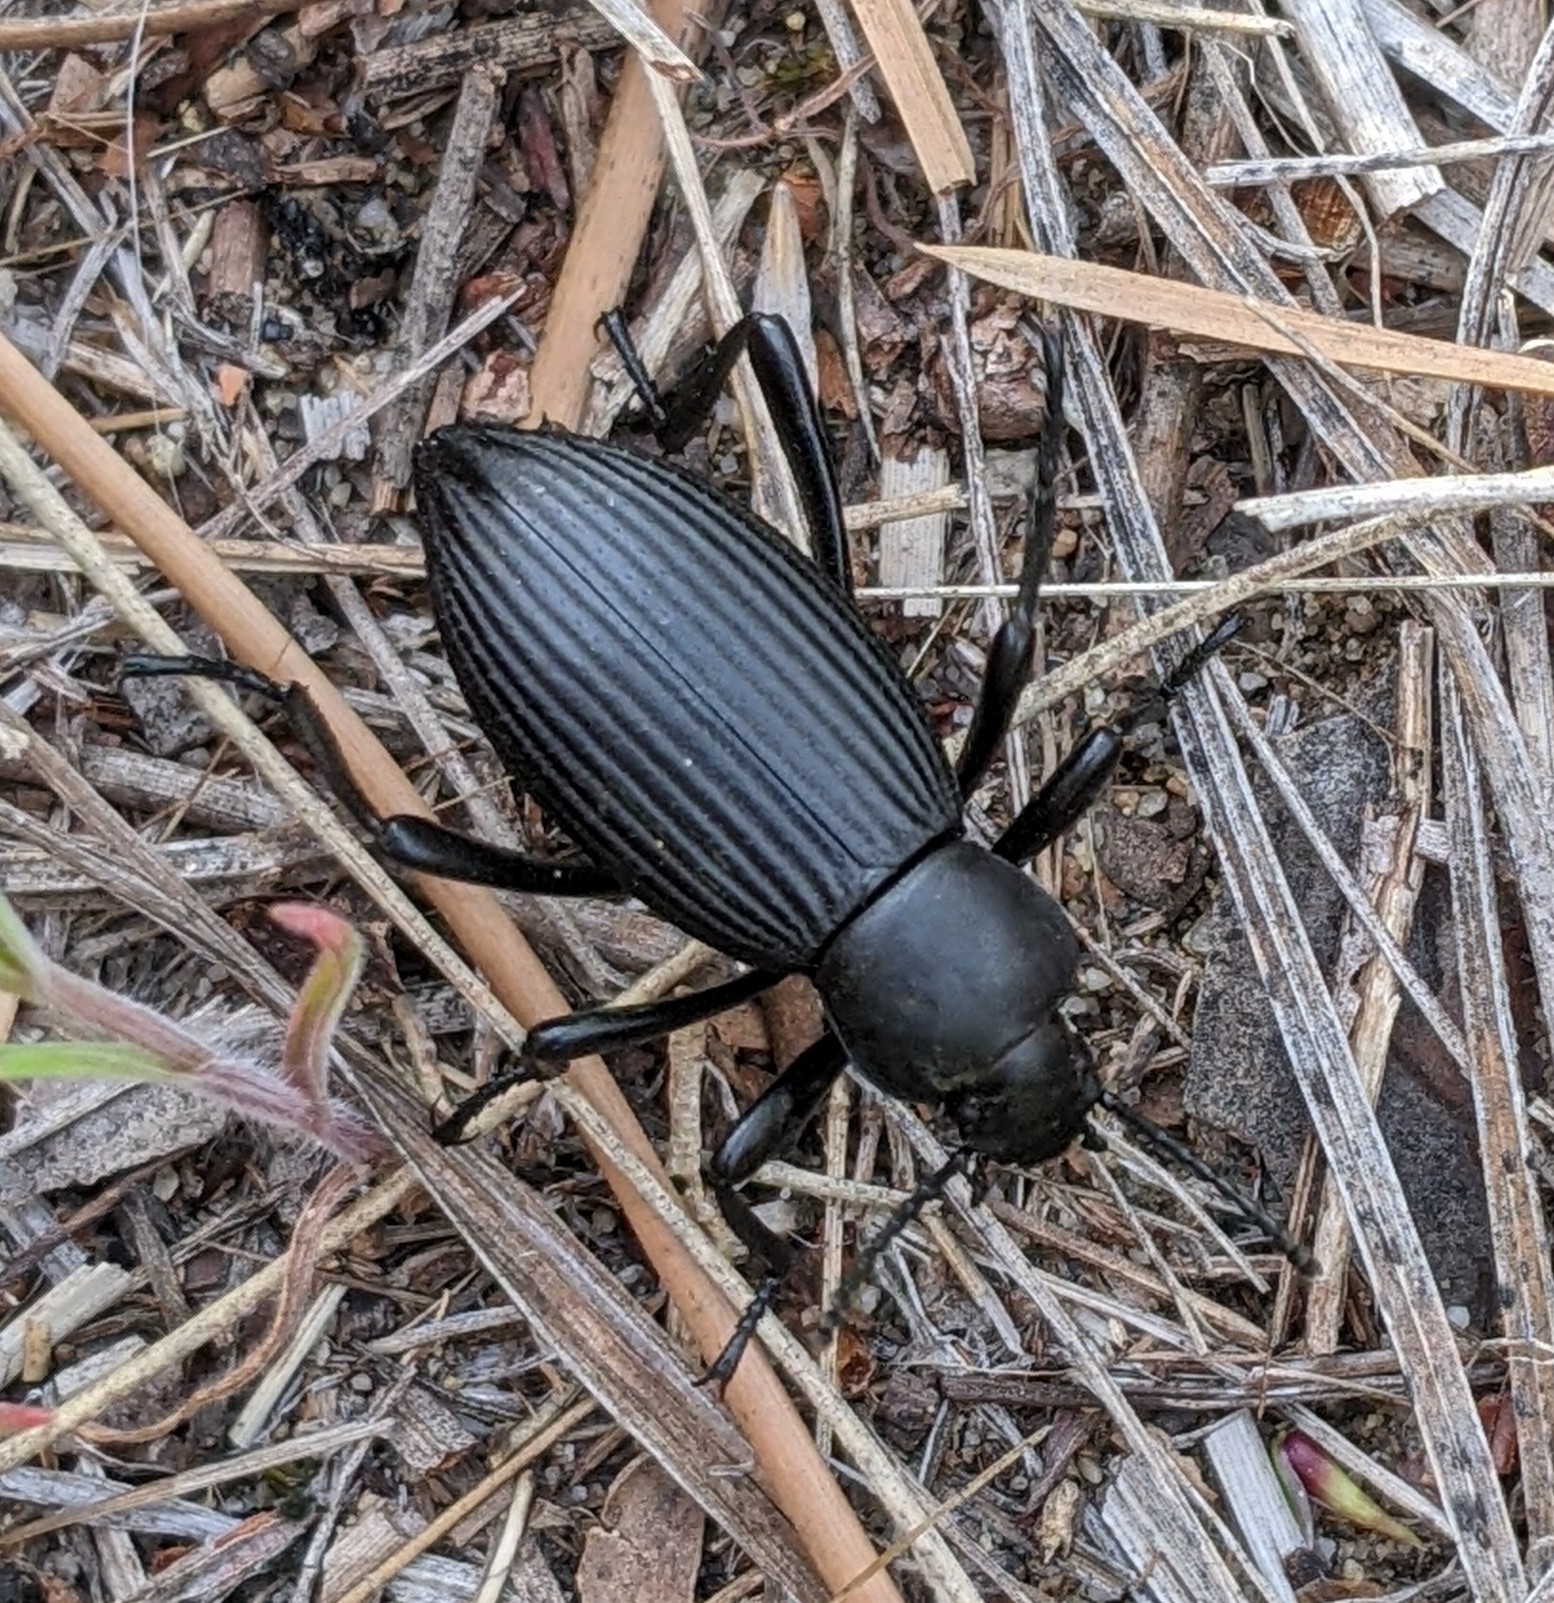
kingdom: Animalia
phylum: Arthropoda
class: Insecta
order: Coleoptera
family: Tenebrionidae
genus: Eleodes
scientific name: Eleodes hispilabris
